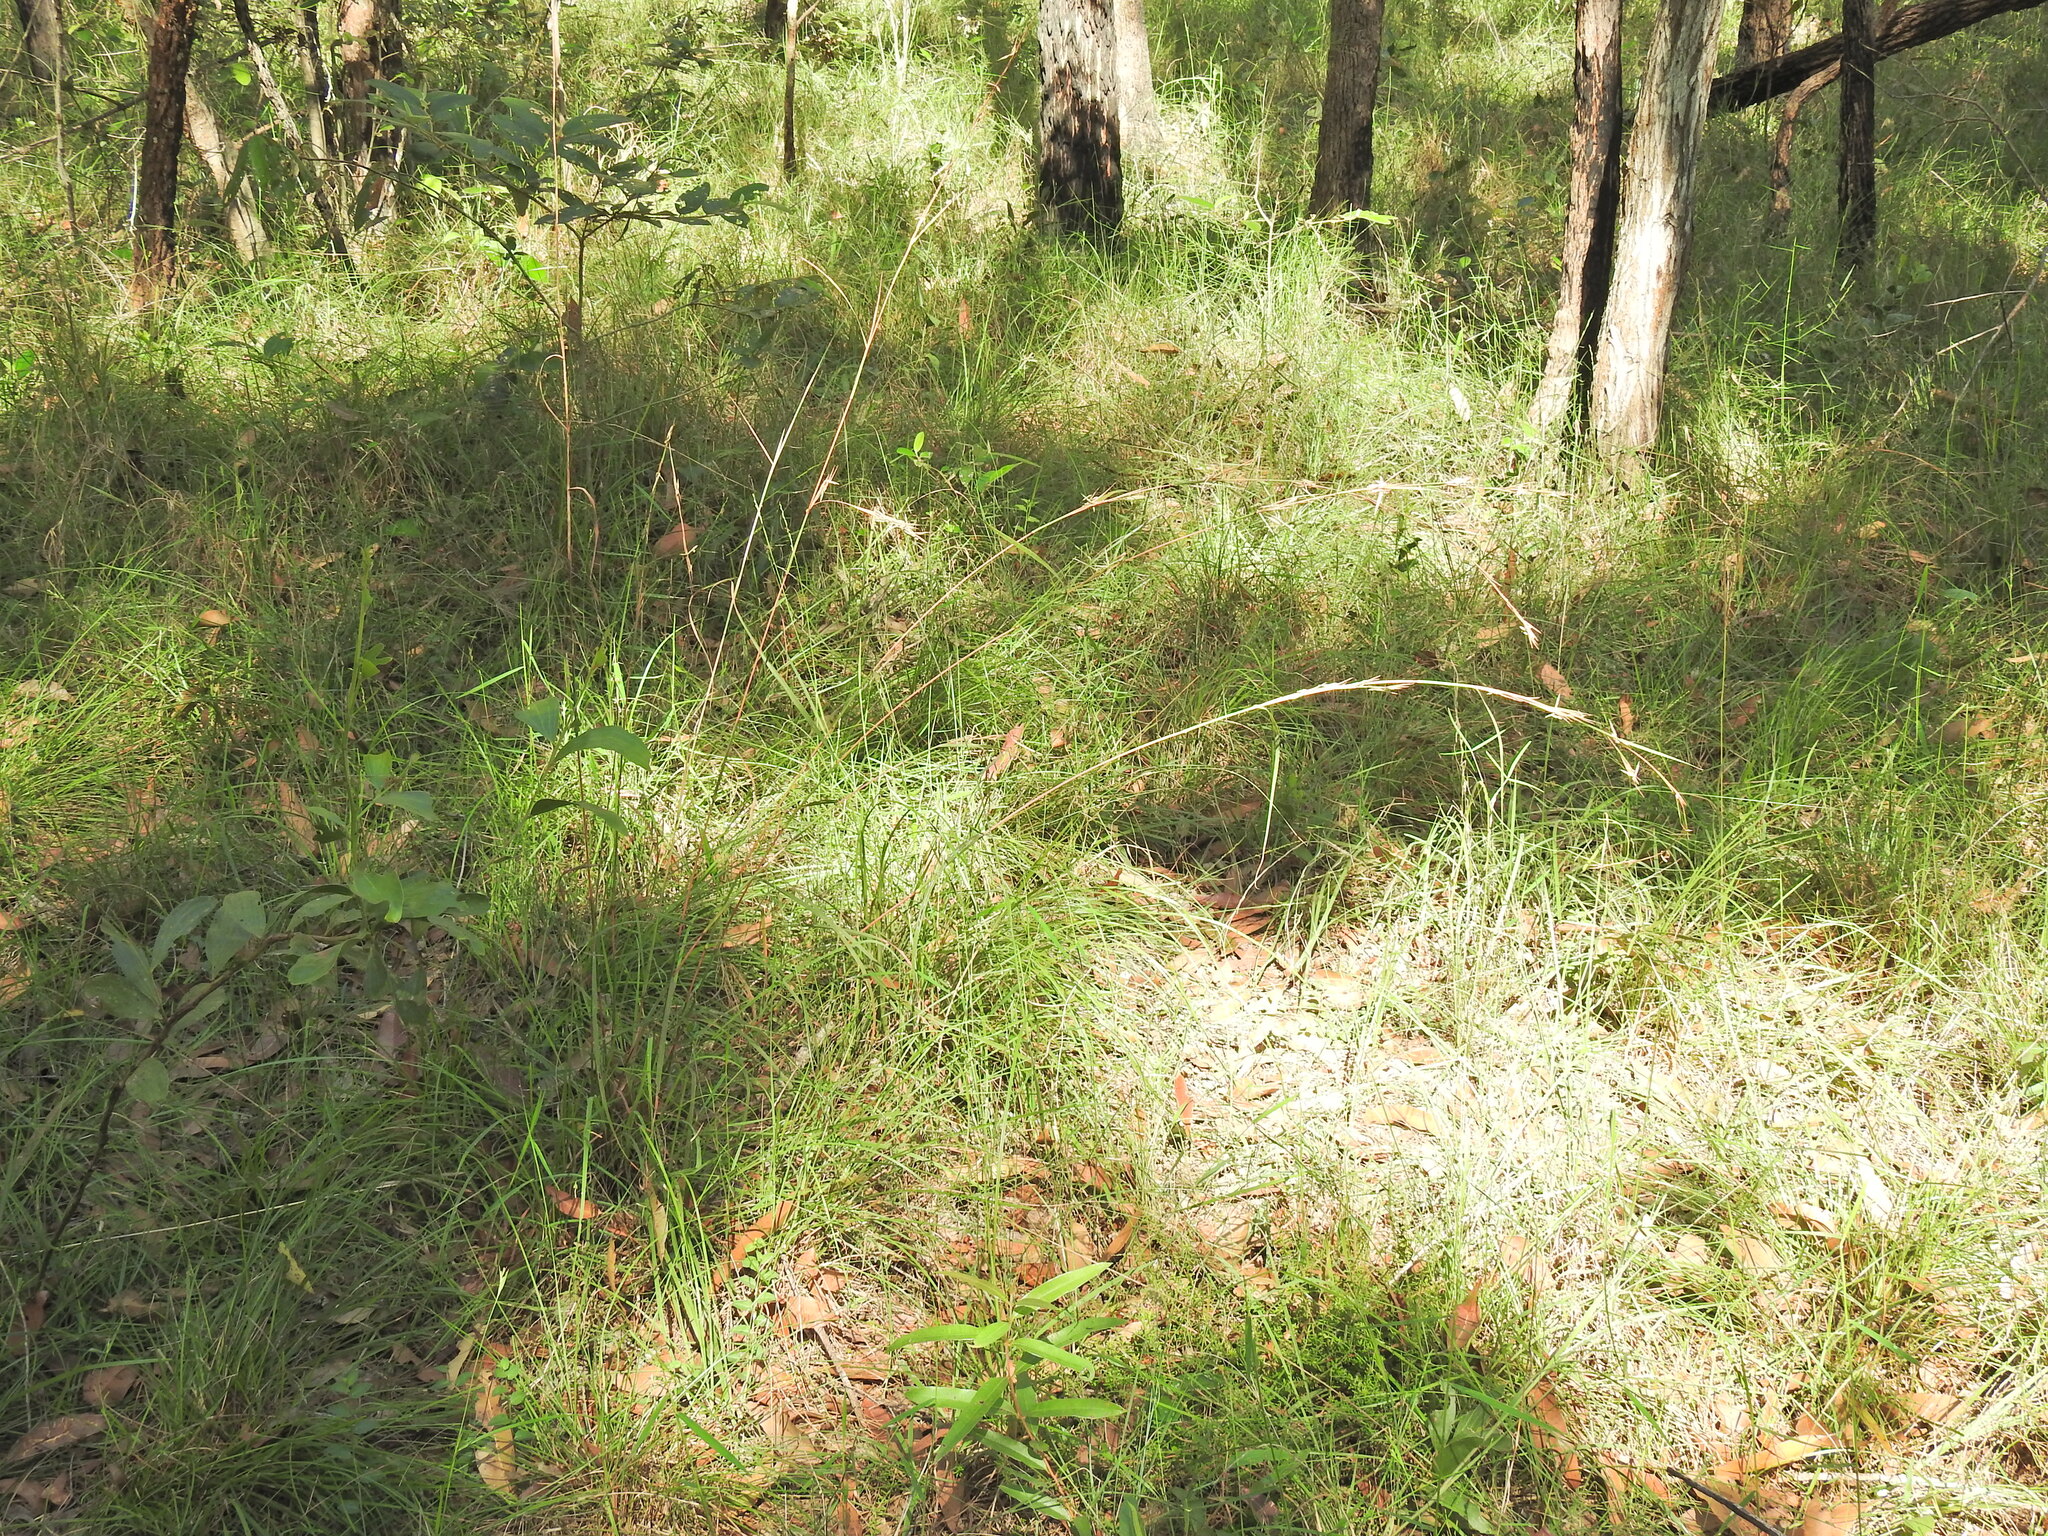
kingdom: Plantae
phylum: Tracheophyta
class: Liliopsida
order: Poales
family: Poaceae
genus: Cymbopogon
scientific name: Cymbopogon refractus
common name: Barbwire grass
